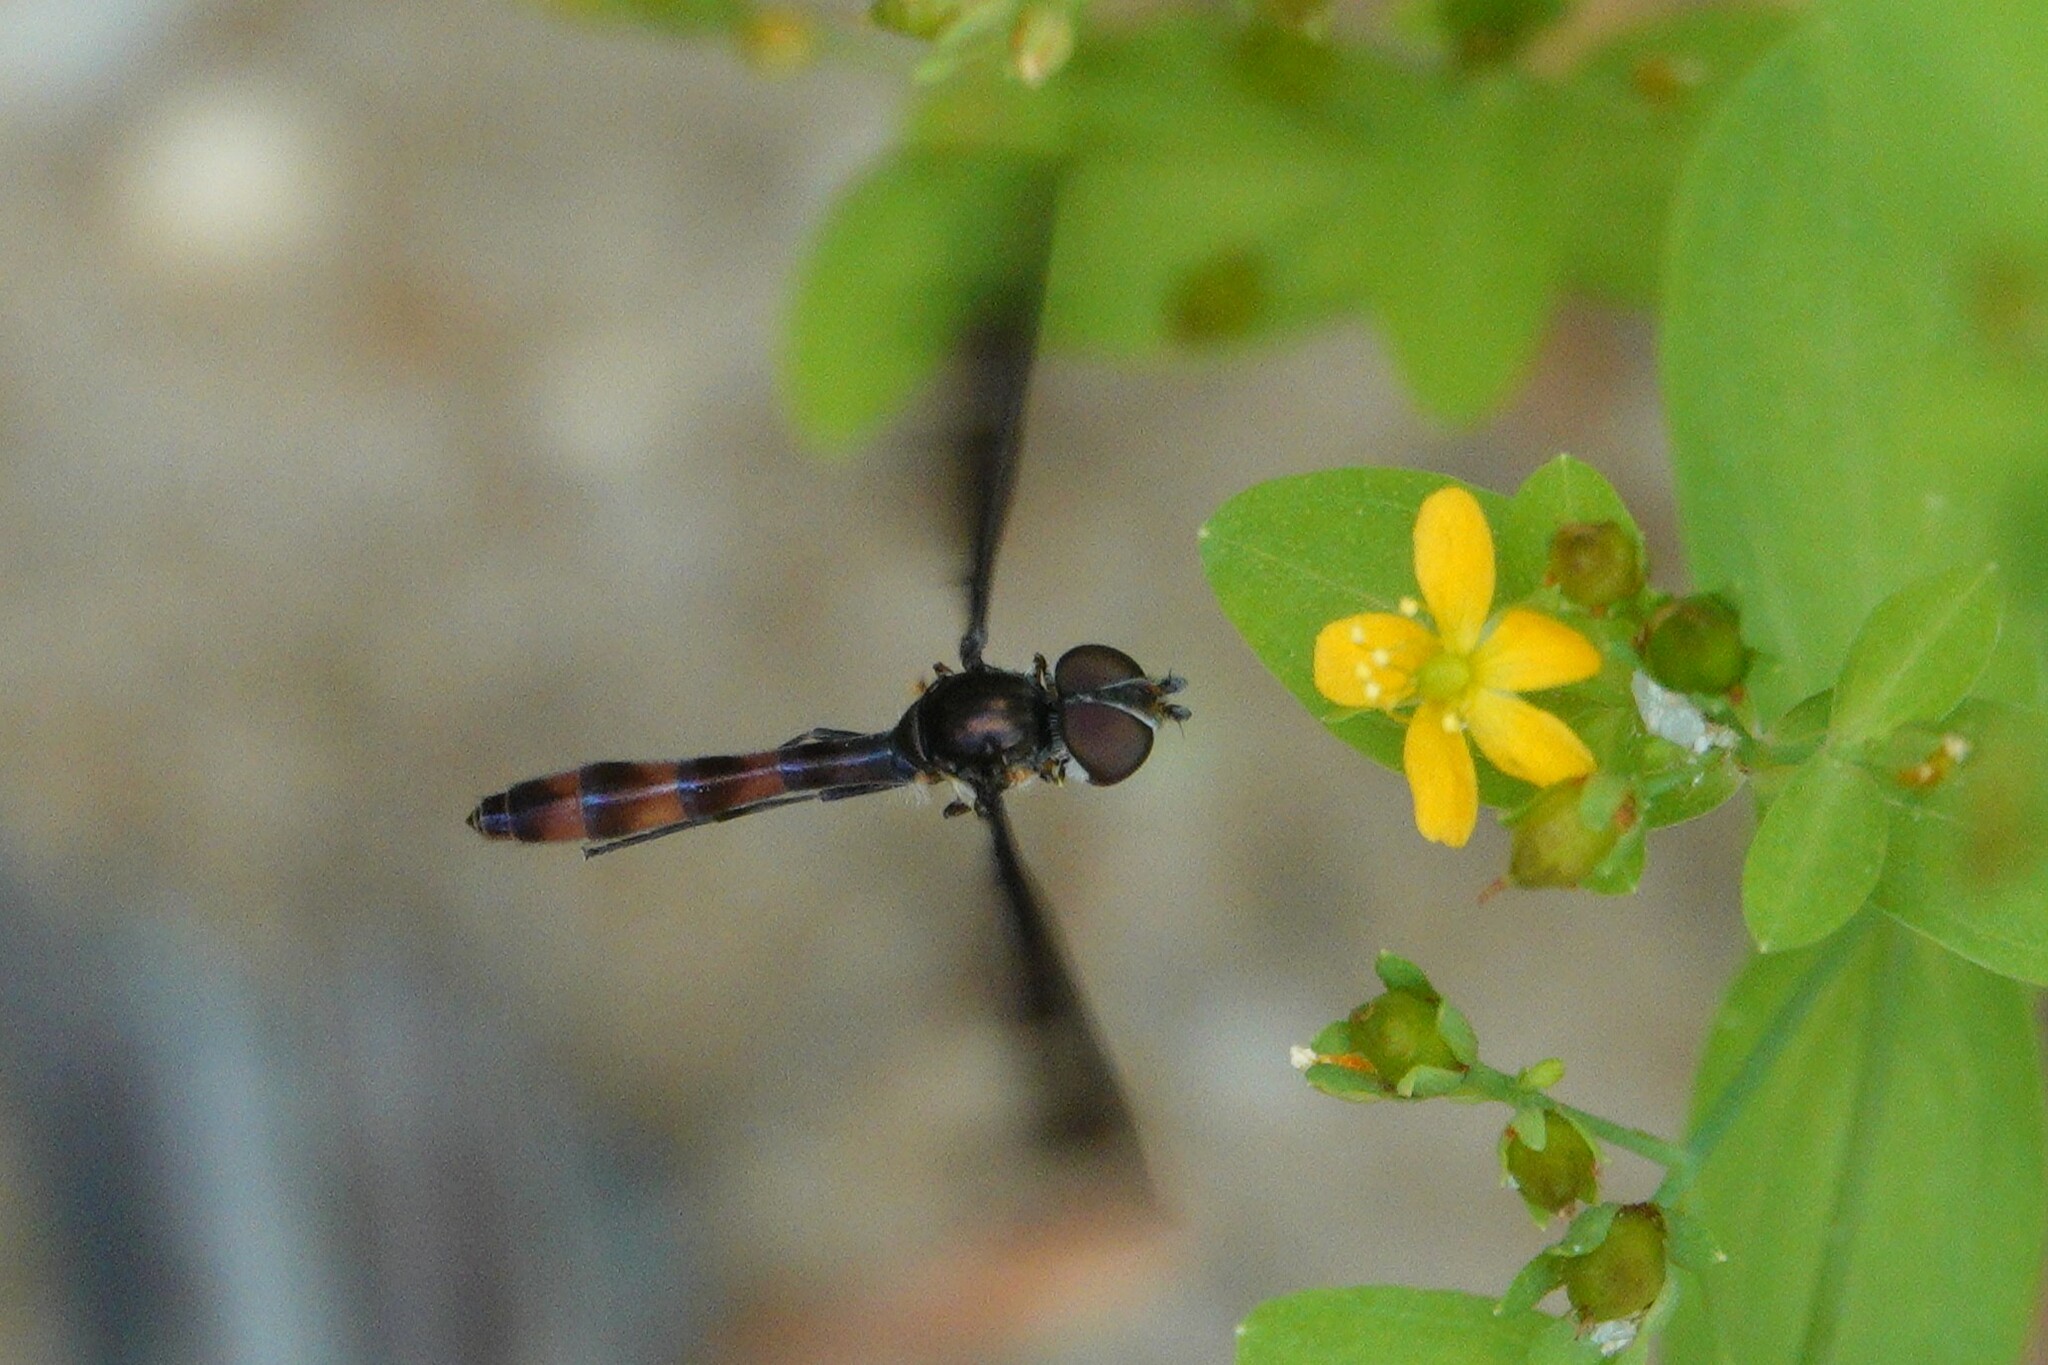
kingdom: Animalia
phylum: Arthropoda
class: Insecta
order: Diptera
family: Syrphidae
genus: Ocyptamus
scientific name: Ocyptamus fuscipennis
